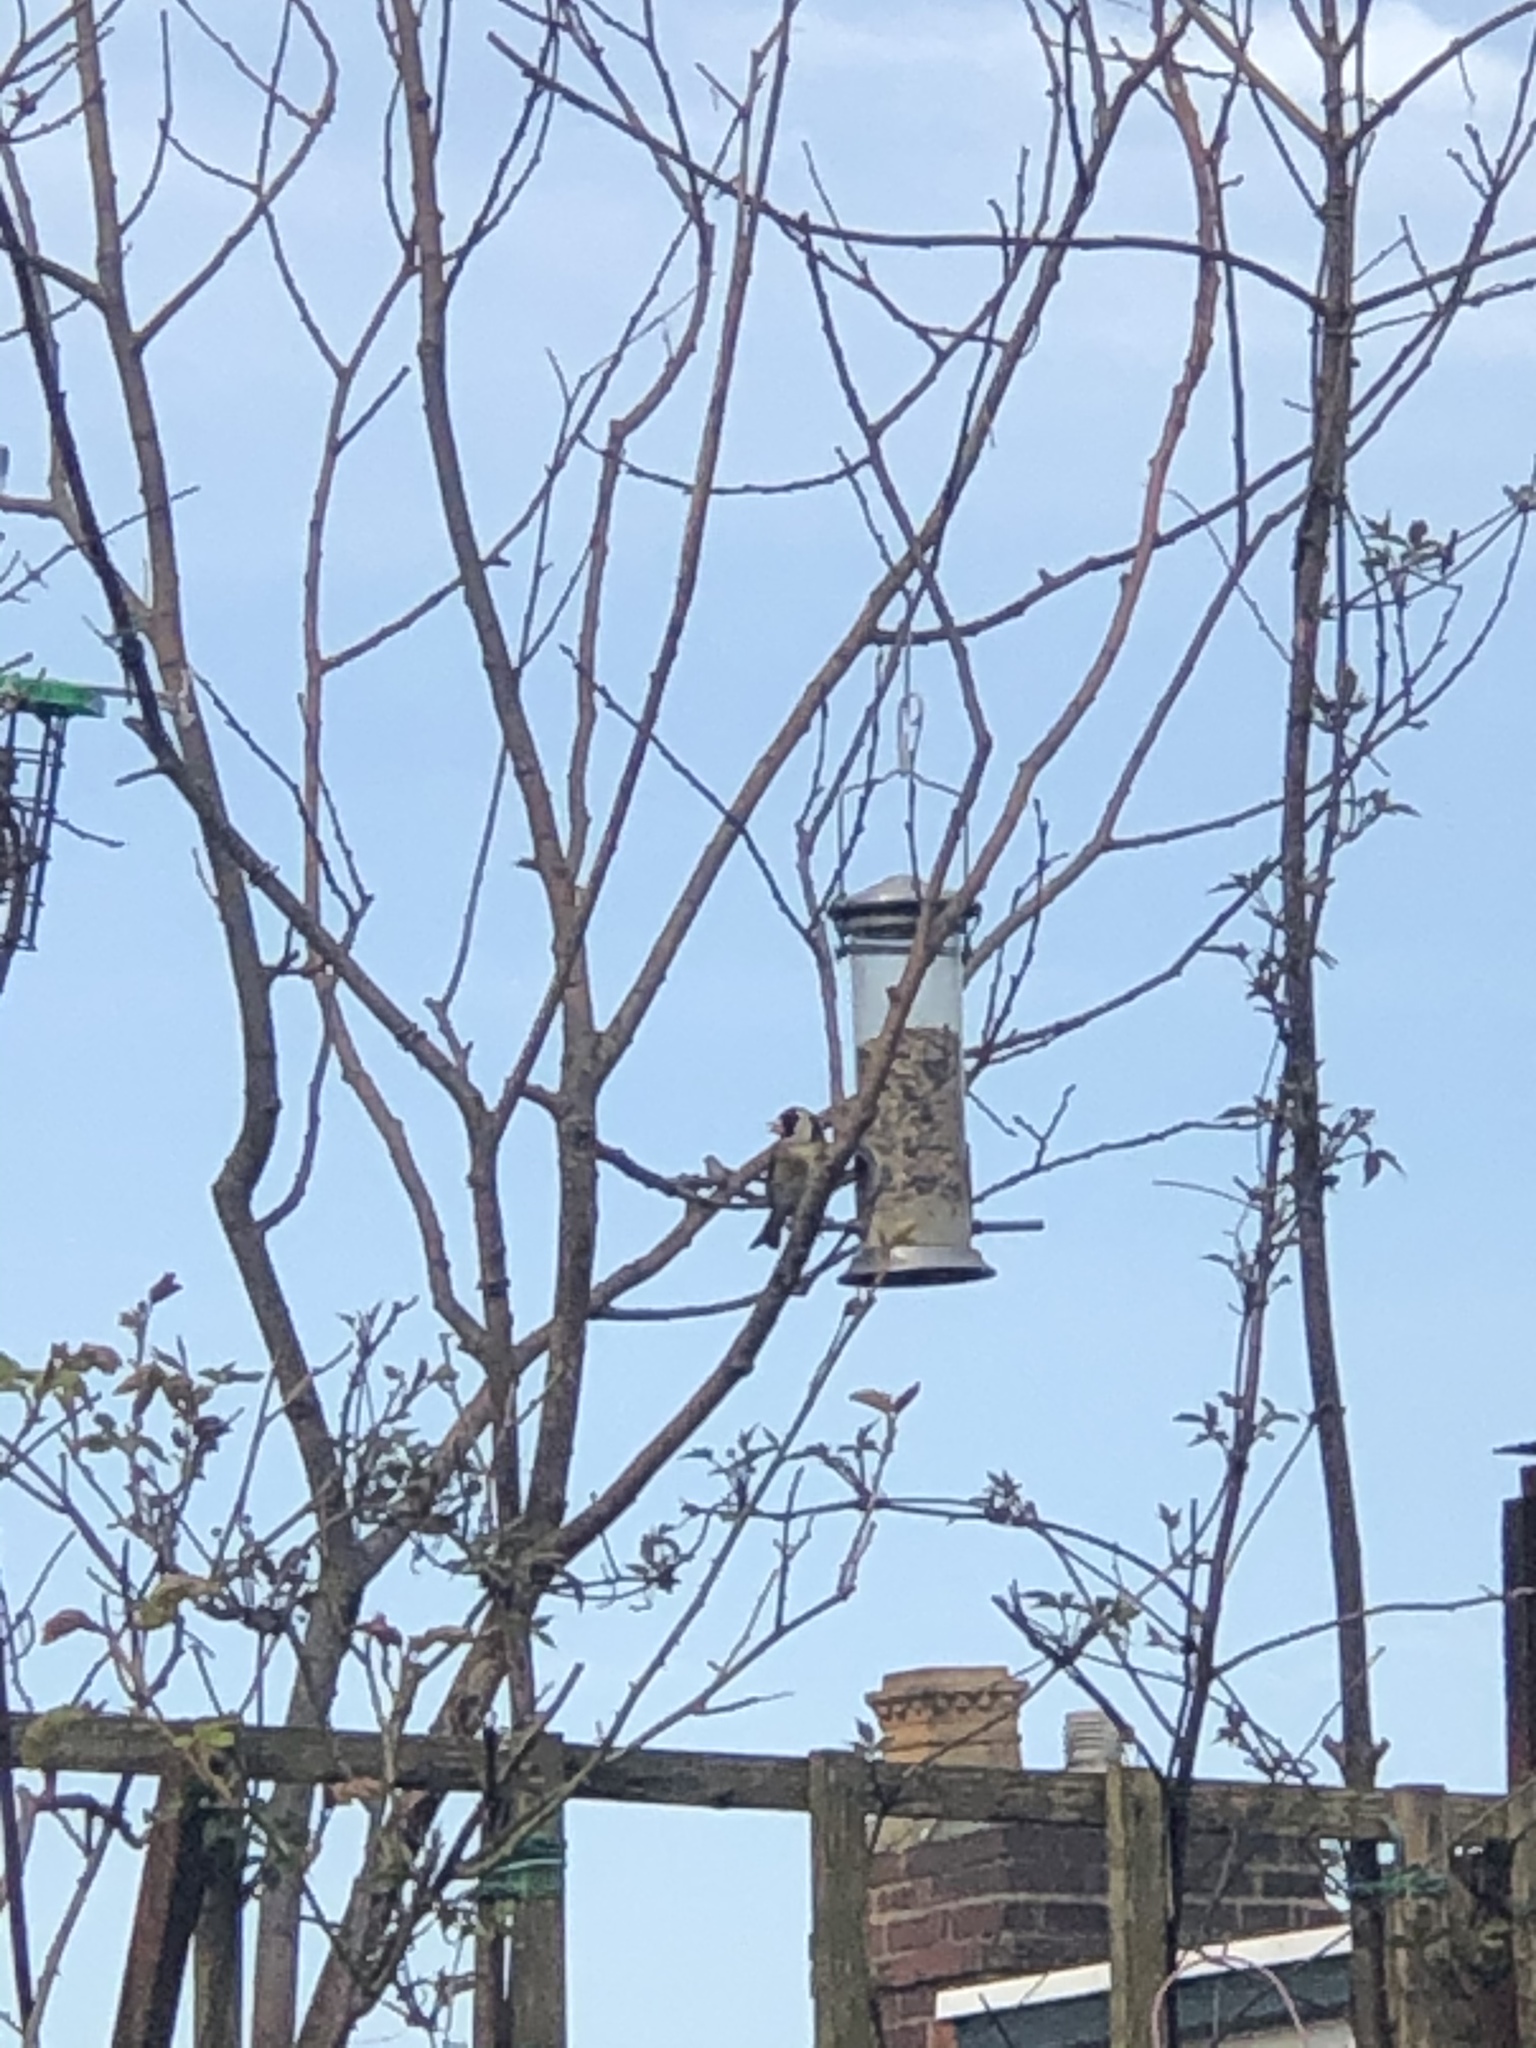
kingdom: Animalia
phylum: Chordata
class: Aves
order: Passeriformes
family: Fringillidae
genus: Carduelis
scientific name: Carduelis carduelis
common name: European goldfinch
